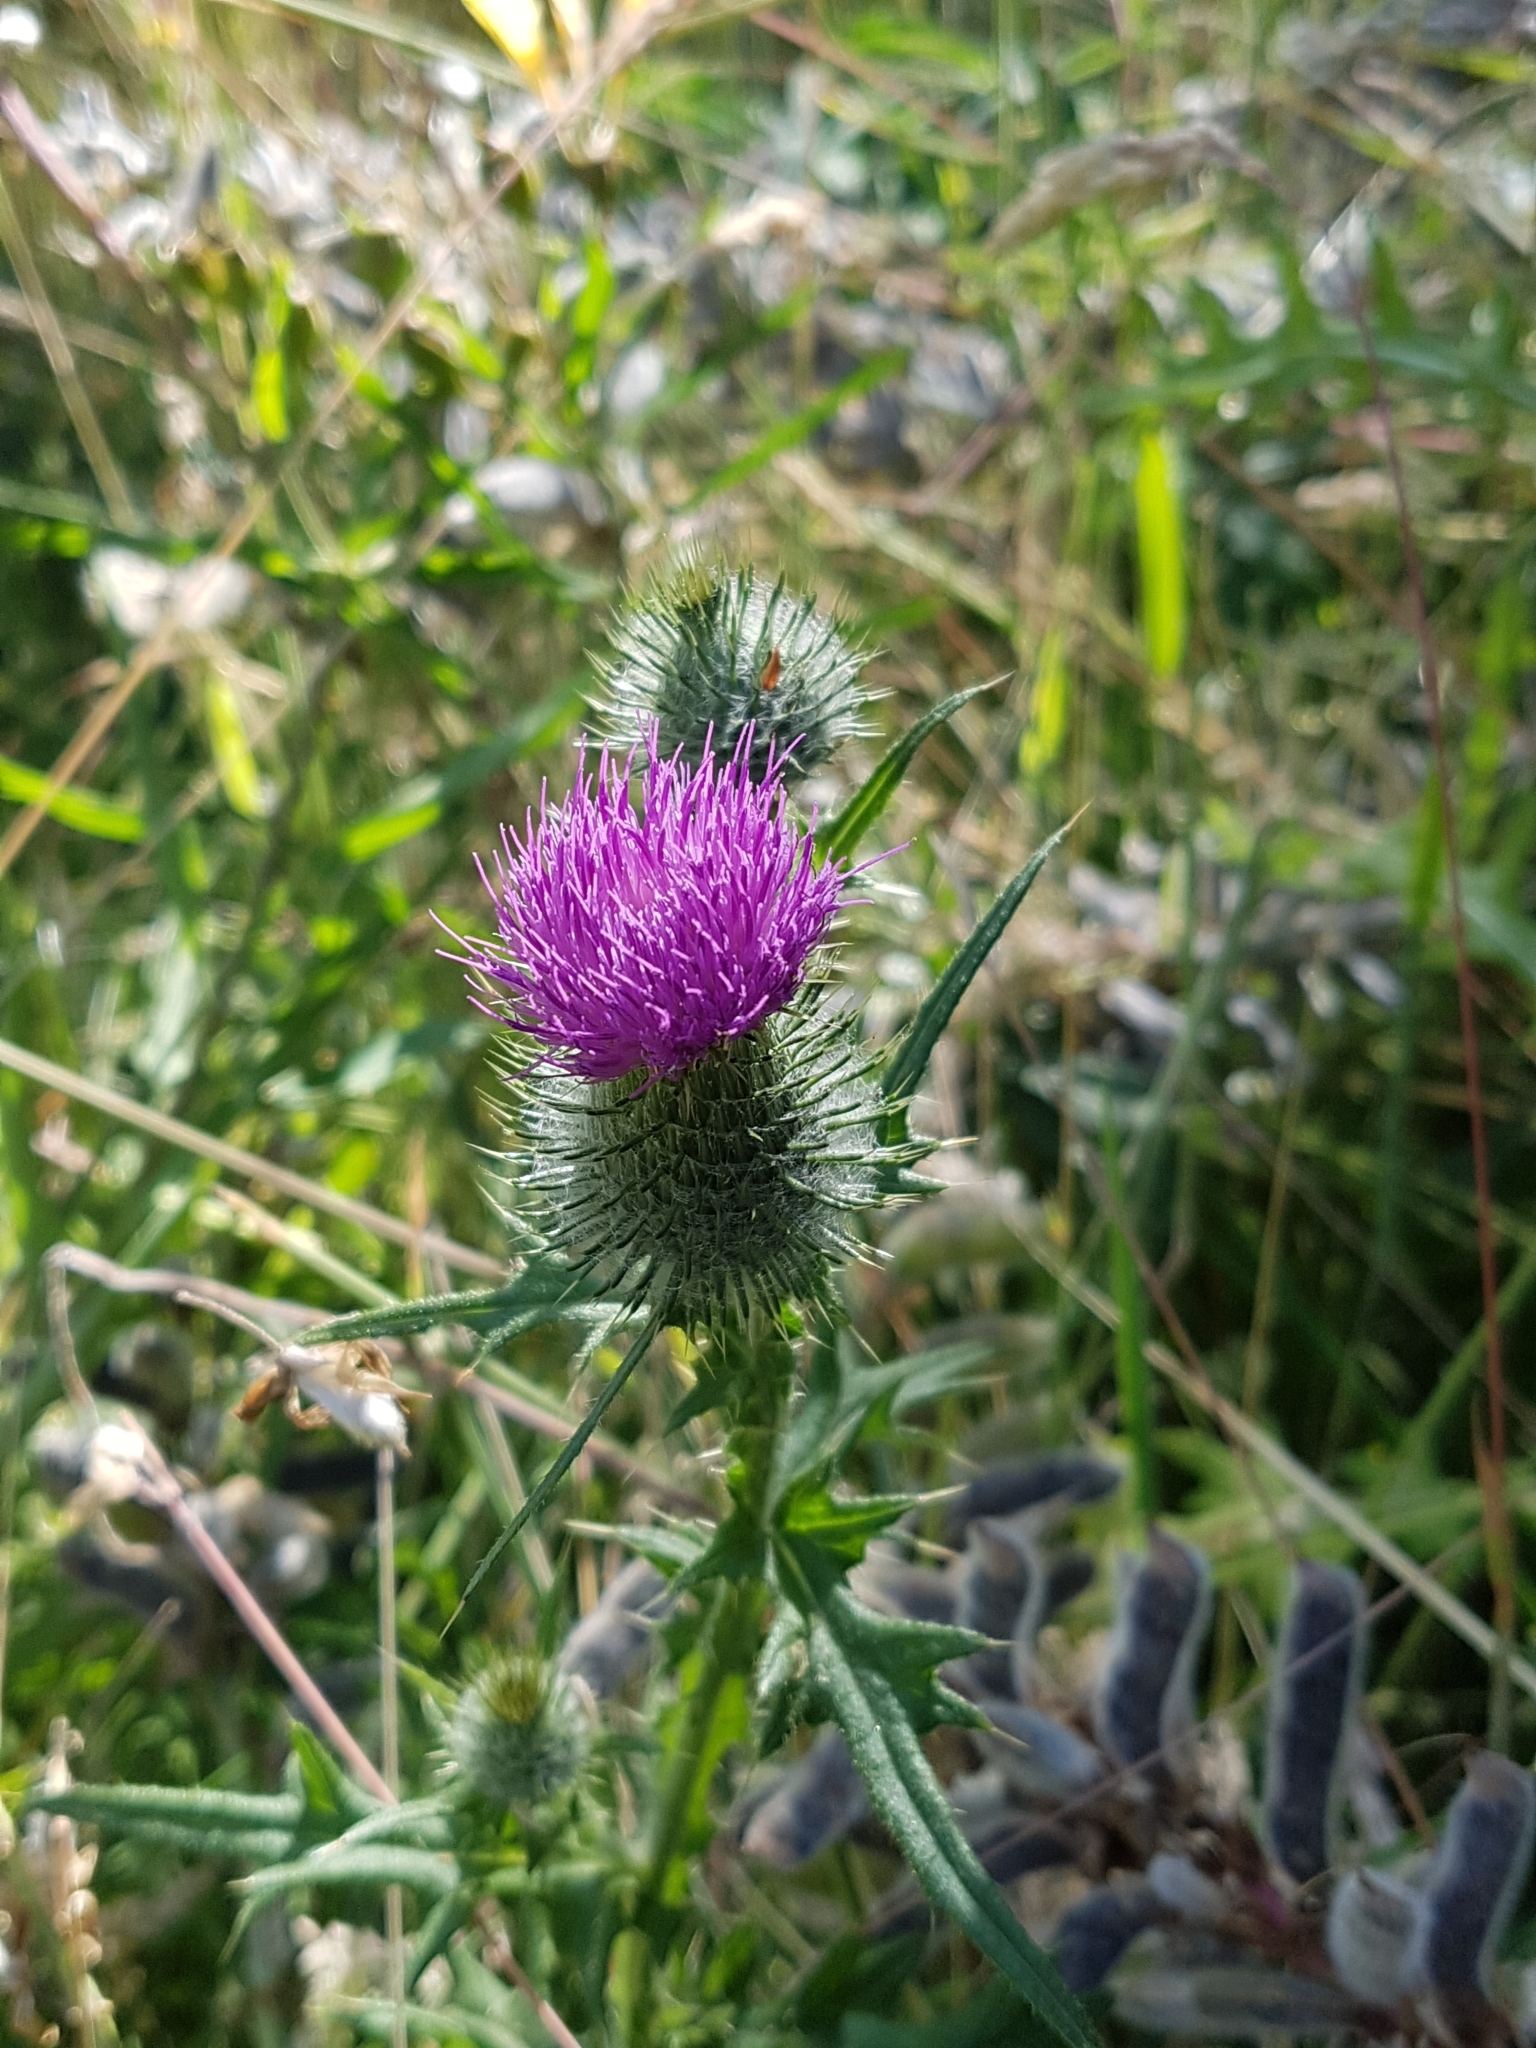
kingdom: Plantae
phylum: Tracheophyta
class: Magnoliopsida
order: Asterales
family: Asteraceae
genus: Cirsium
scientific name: Cirsium vulgare
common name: Bull thistle
